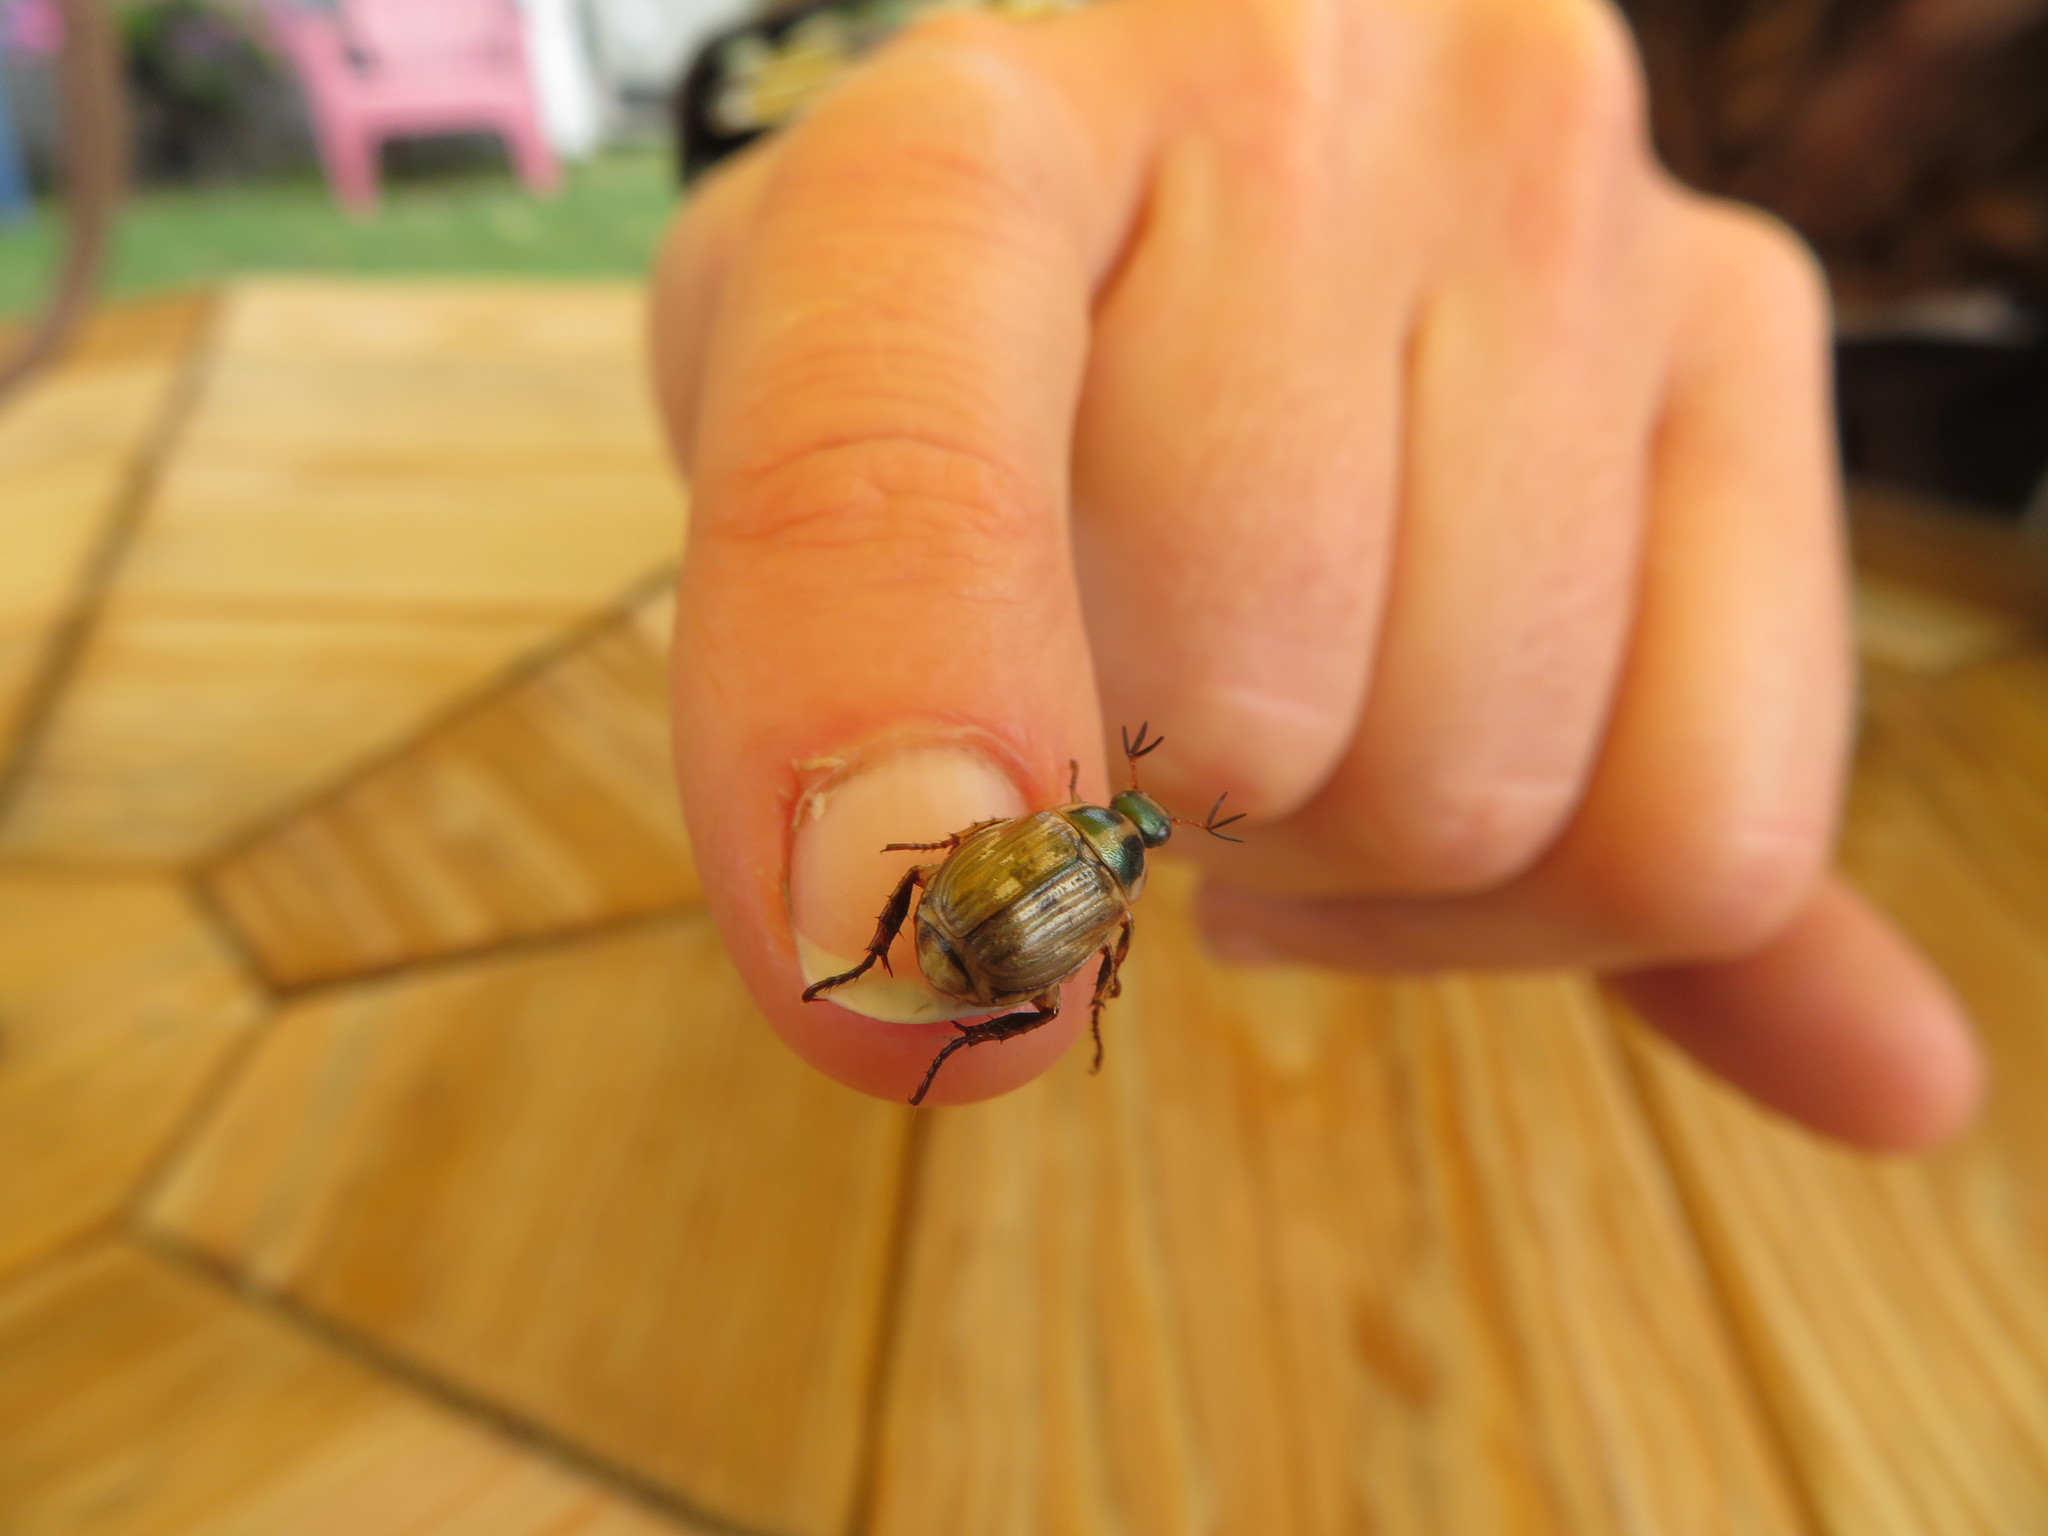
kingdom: Animalia
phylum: Arthropoda
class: Insecta
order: Coleoptera
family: Scarabaeidae
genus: Exomala
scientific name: Exomala orientalis
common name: Oriental beetle
